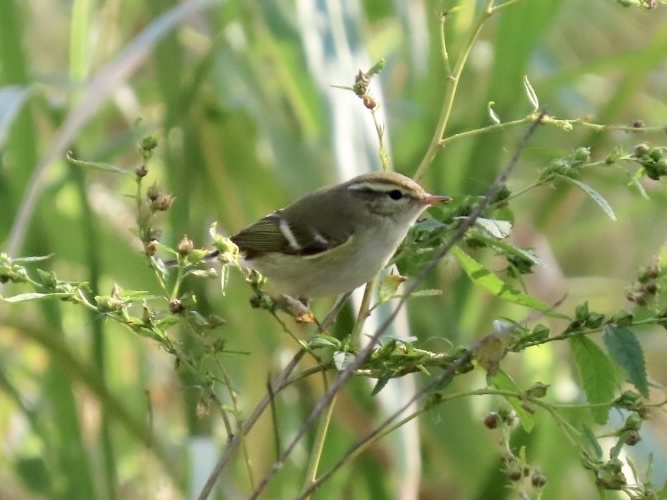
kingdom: Animalia
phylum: Chordata
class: Aves
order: Passeriformes
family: Phylloscopidae
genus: Phylloscopus
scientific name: Phylloscopus inornatus
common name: Yellow-browed warbler
